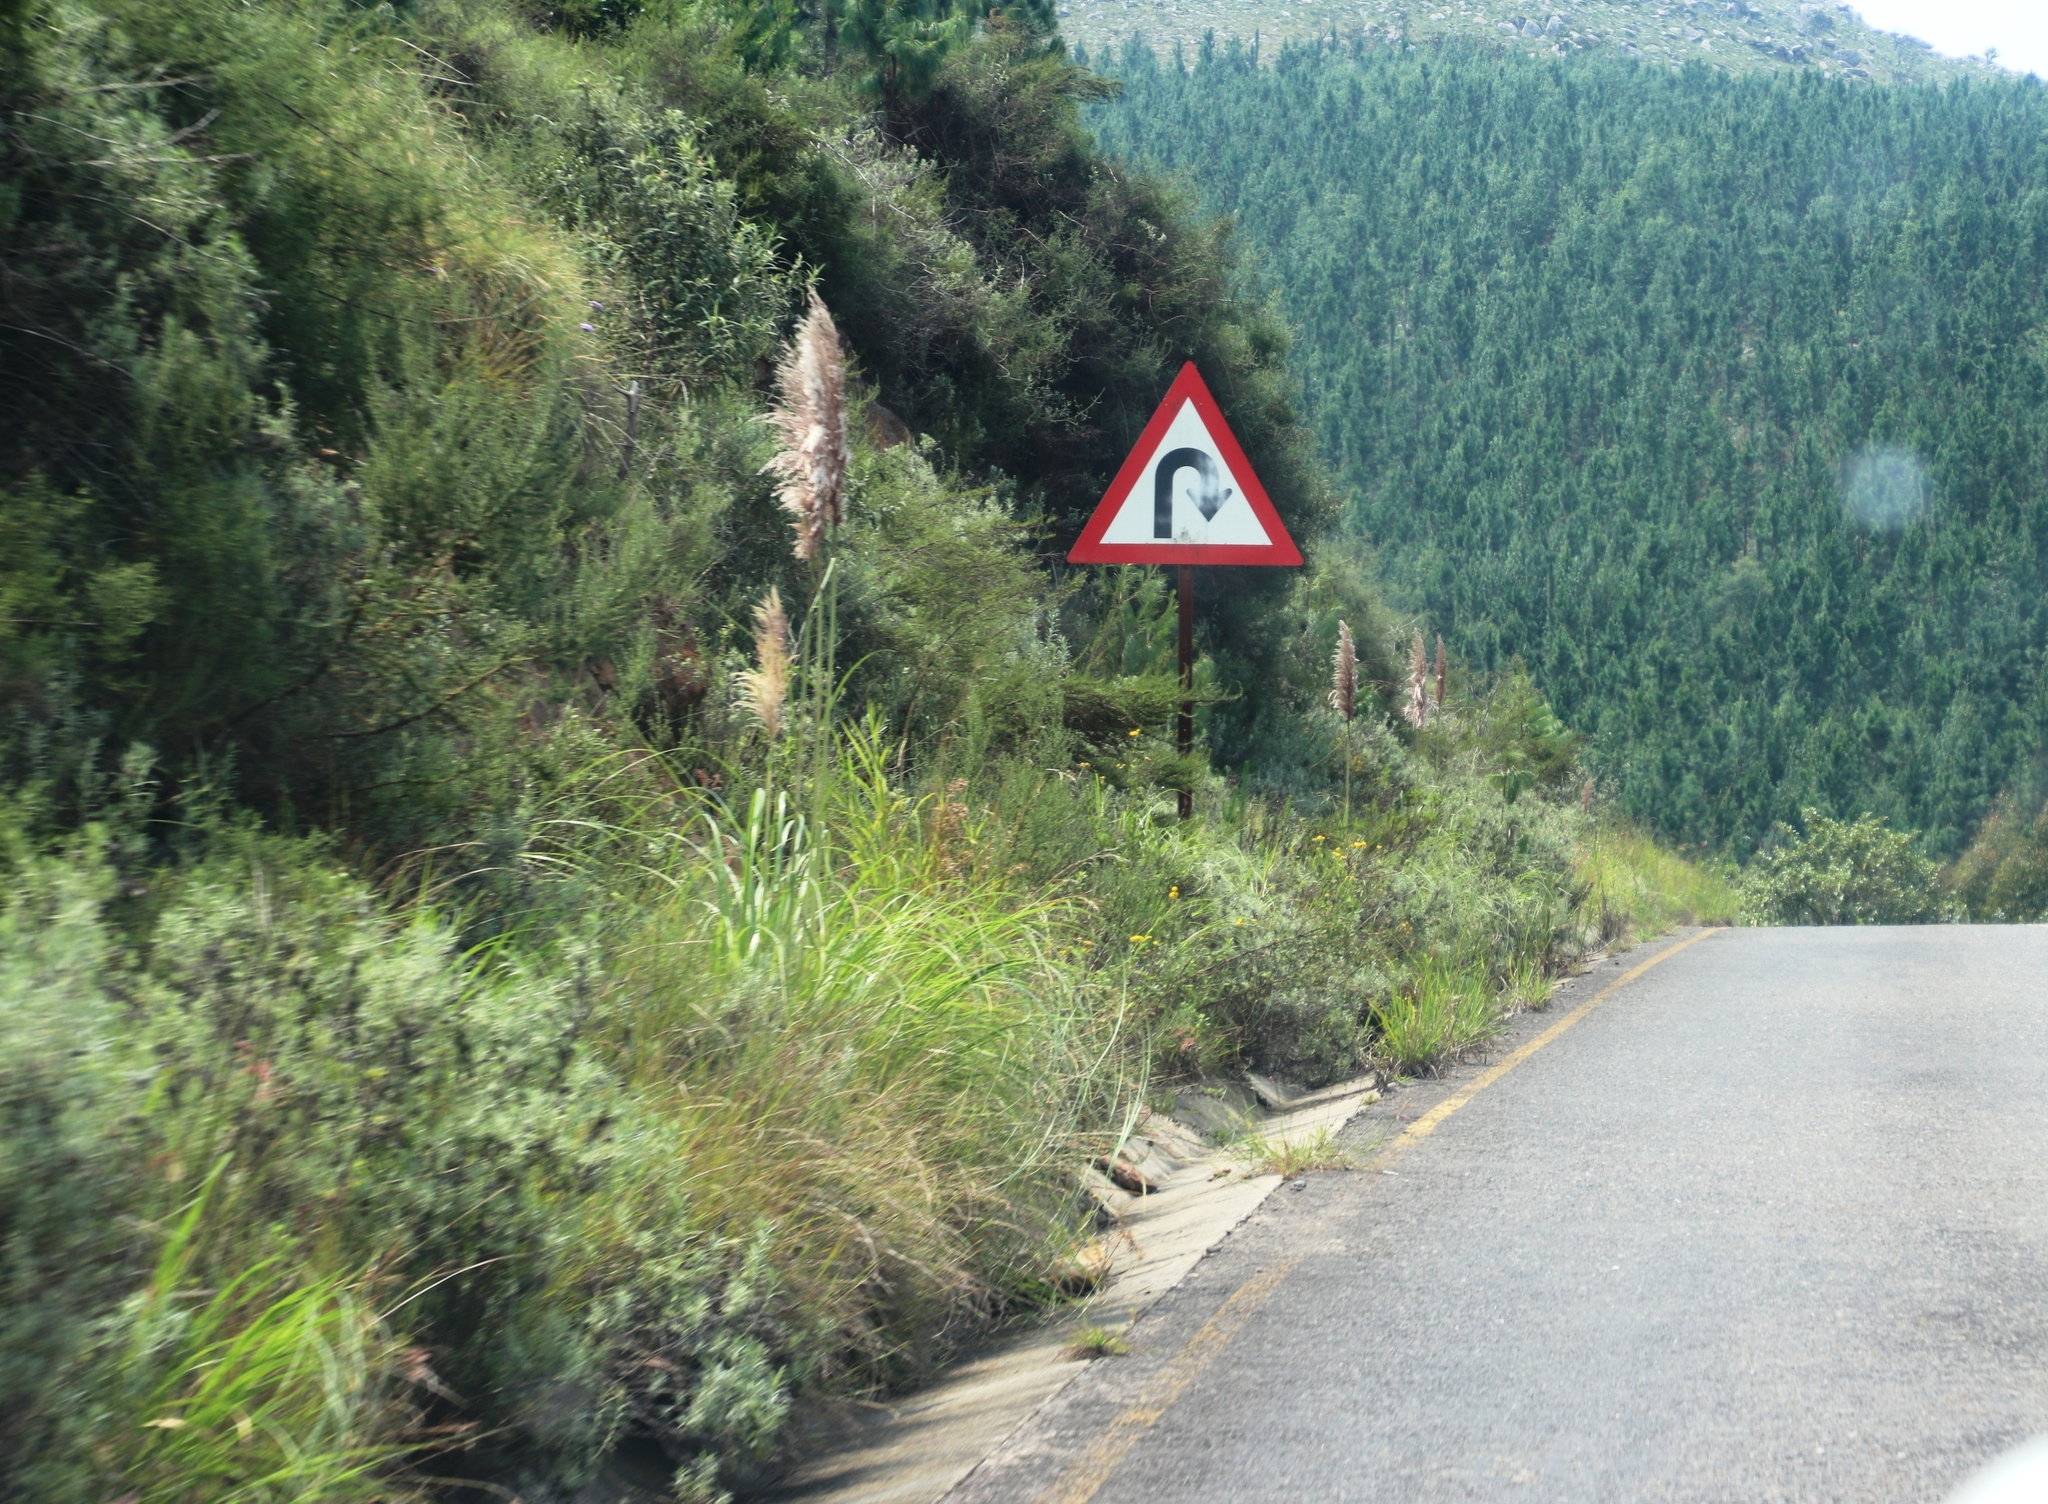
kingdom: Plantae
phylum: Tracheophyta
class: Liliopsida
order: Poales
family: Poaceae
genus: Cortaderia
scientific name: Cortaderia selloana
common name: Uruguayan pampas grass
